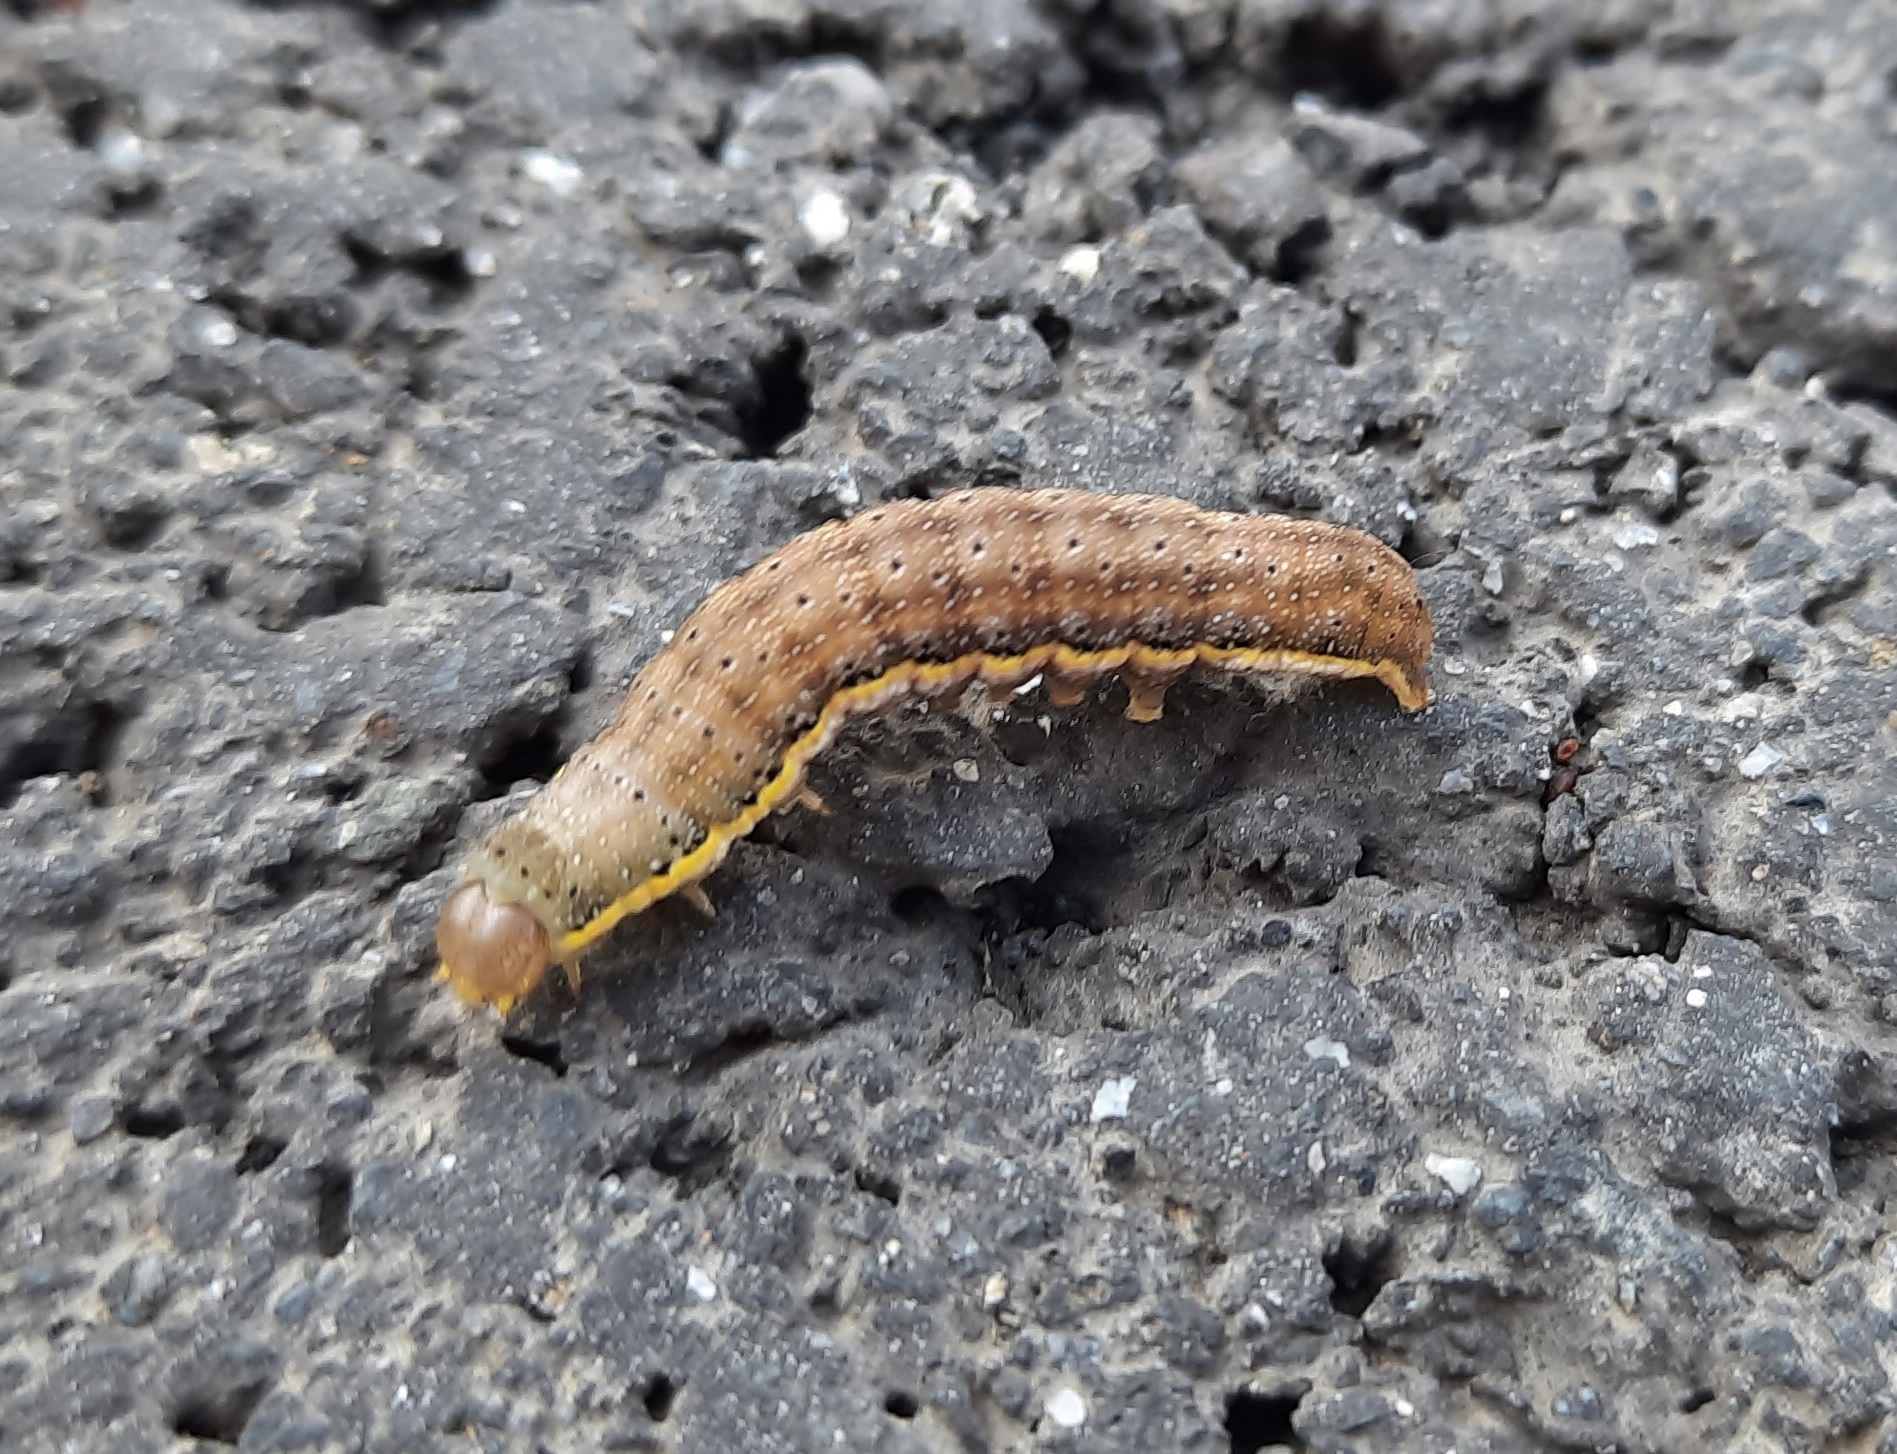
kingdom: Animalia
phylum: Arthropoda
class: Insecta
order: Lepidoptera
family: Noctuidae
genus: Lacanobia
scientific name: Lacanobia oleracea
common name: Bright-line brown-eye
